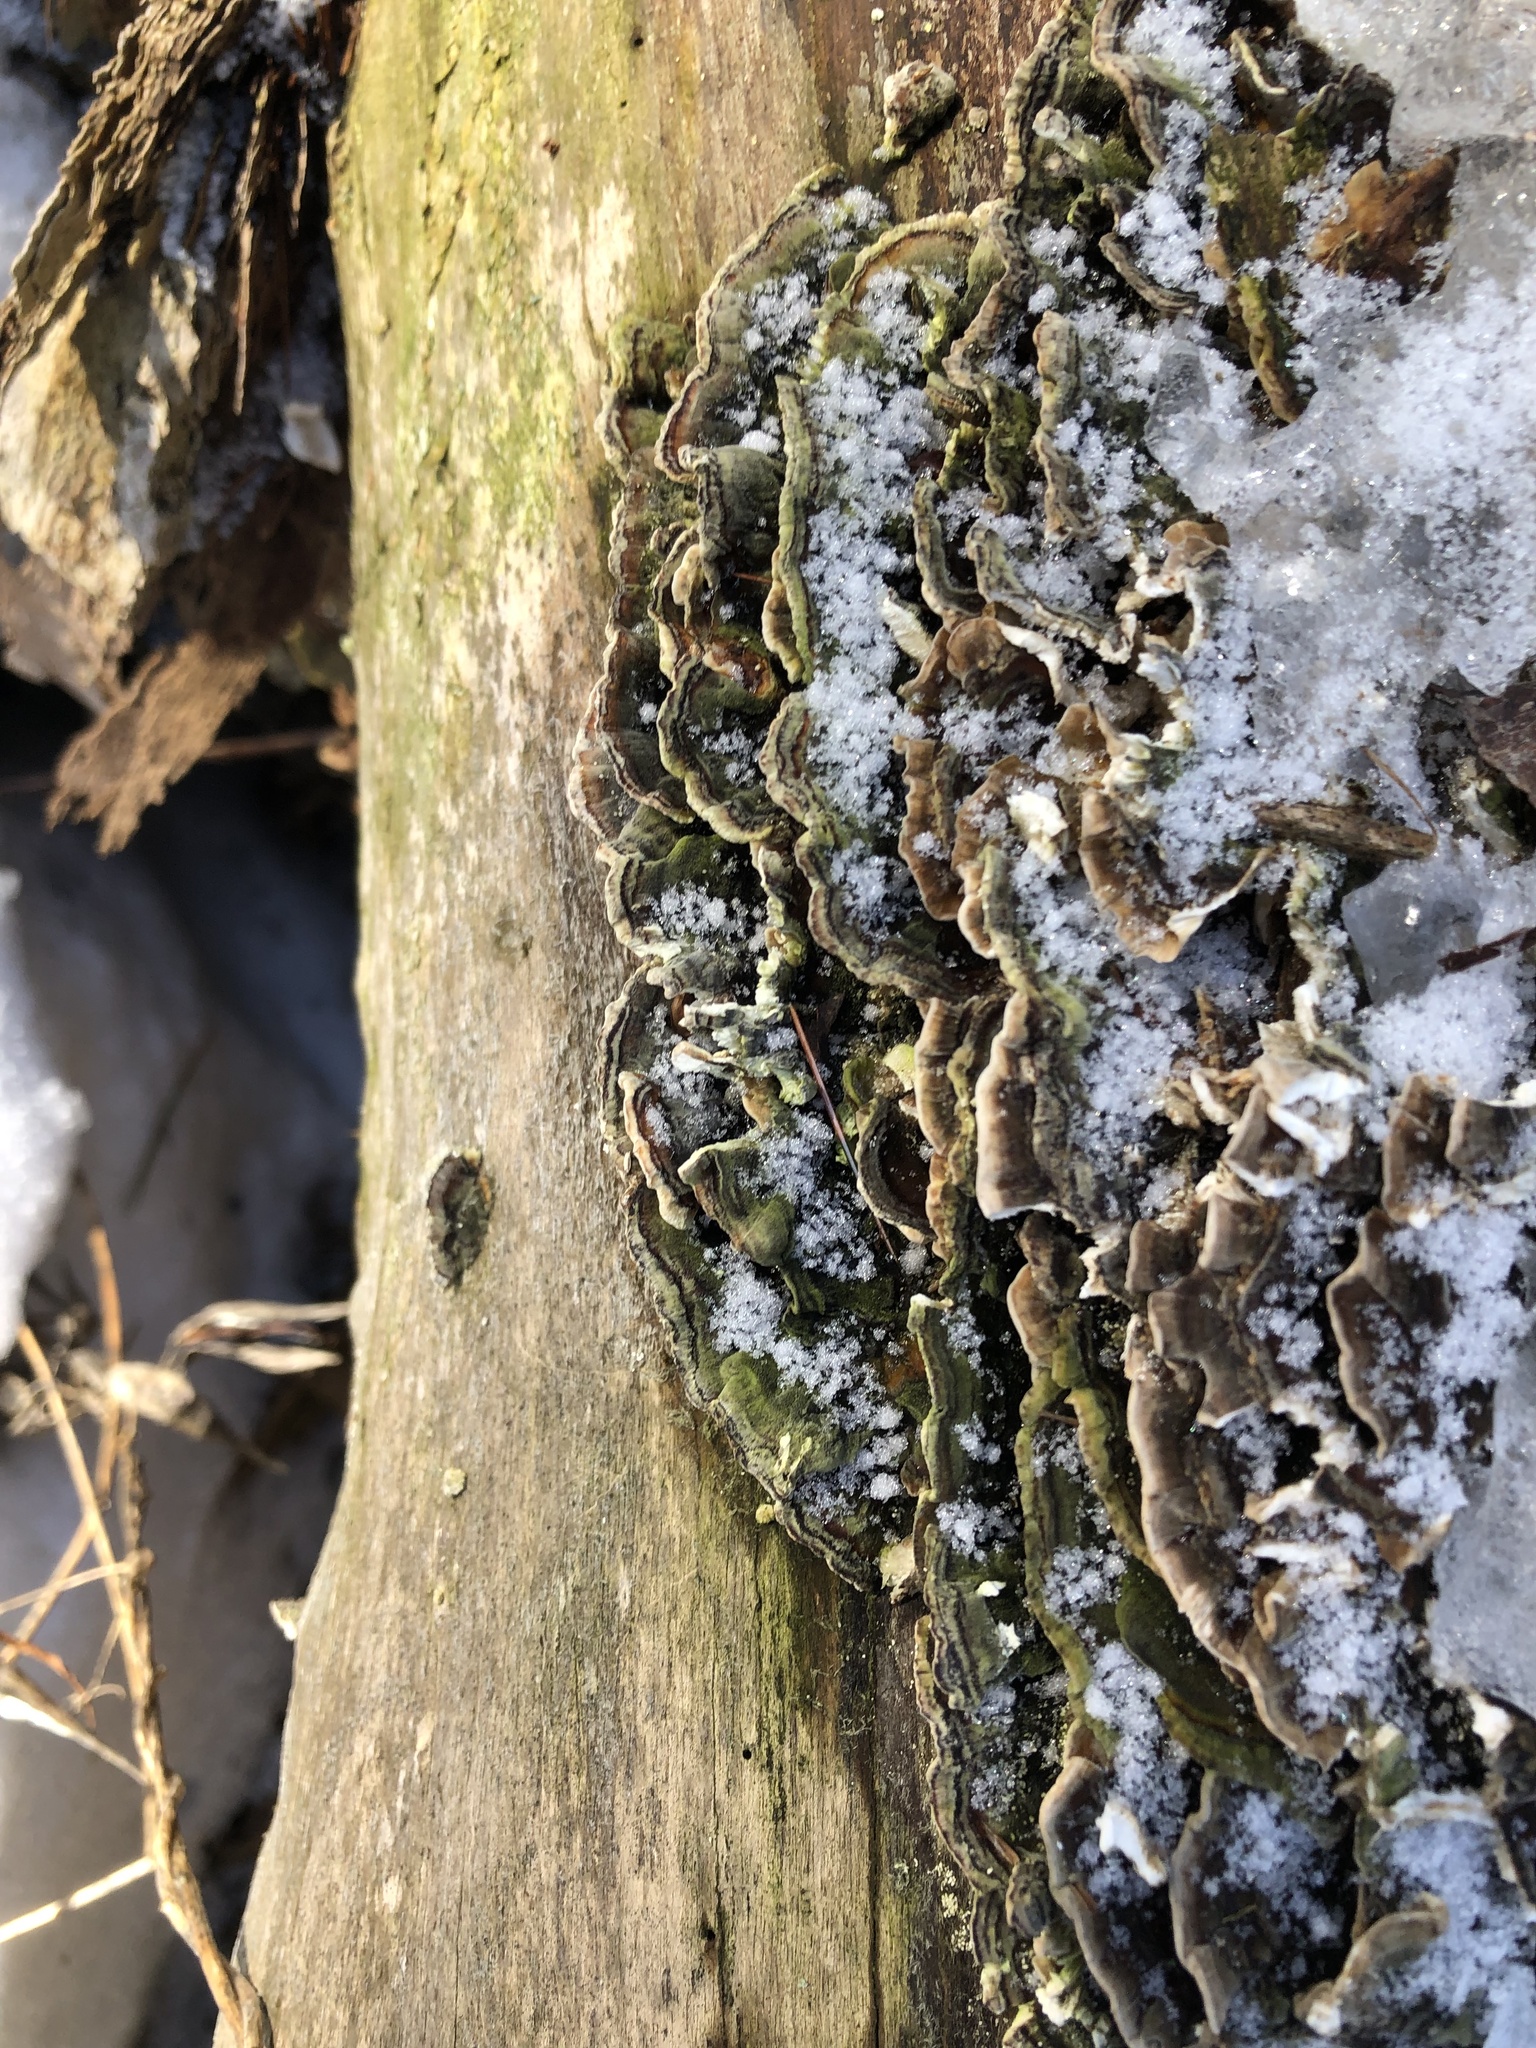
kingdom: Fungi
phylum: Basidiomycota
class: Agaricomycetes
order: Polyporales
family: Polyporaceae
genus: Trametes
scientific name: Trametes versicolor
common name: Turkeytail
